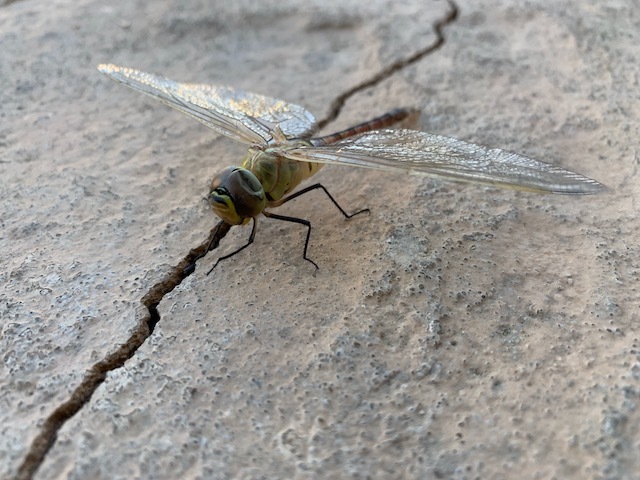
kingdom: Animalia
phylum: Arthropoda
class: Insecta
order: Odonata
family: Aeshnidae
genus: Anax
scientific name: Anax ephippiger
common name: Vagrant emperor
